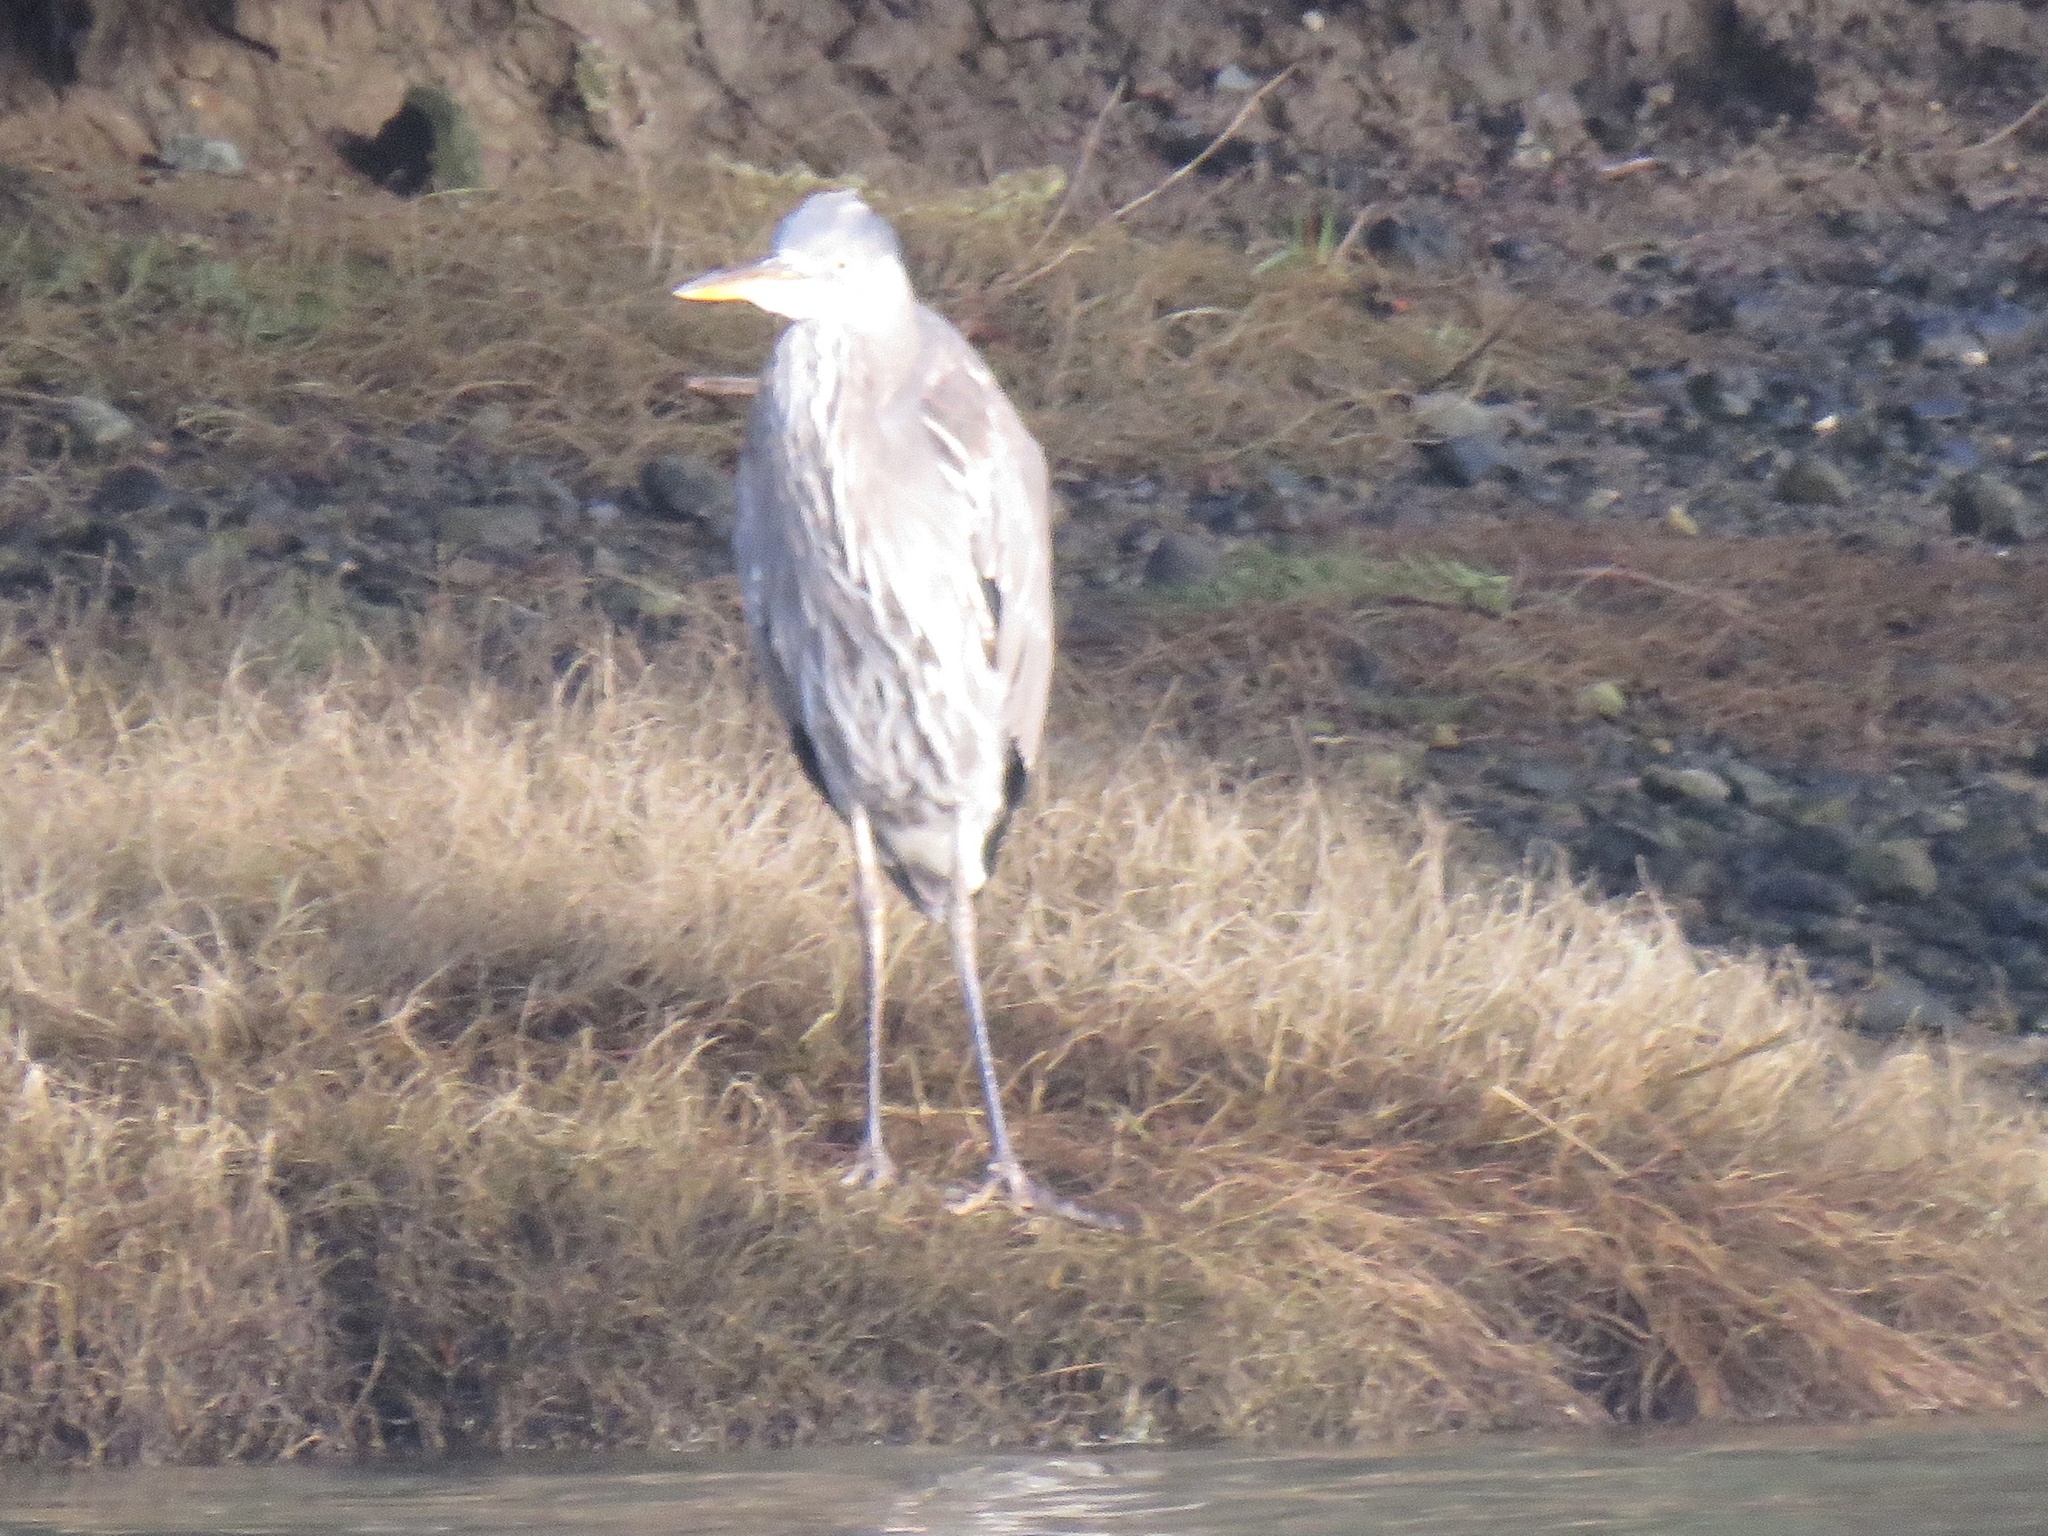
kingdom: Animalia
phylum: Chordata
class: Aves
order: Pelecaniformes
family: Ardeidae
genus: Ardea
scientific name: Ardea herodias
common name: Great blue heron
